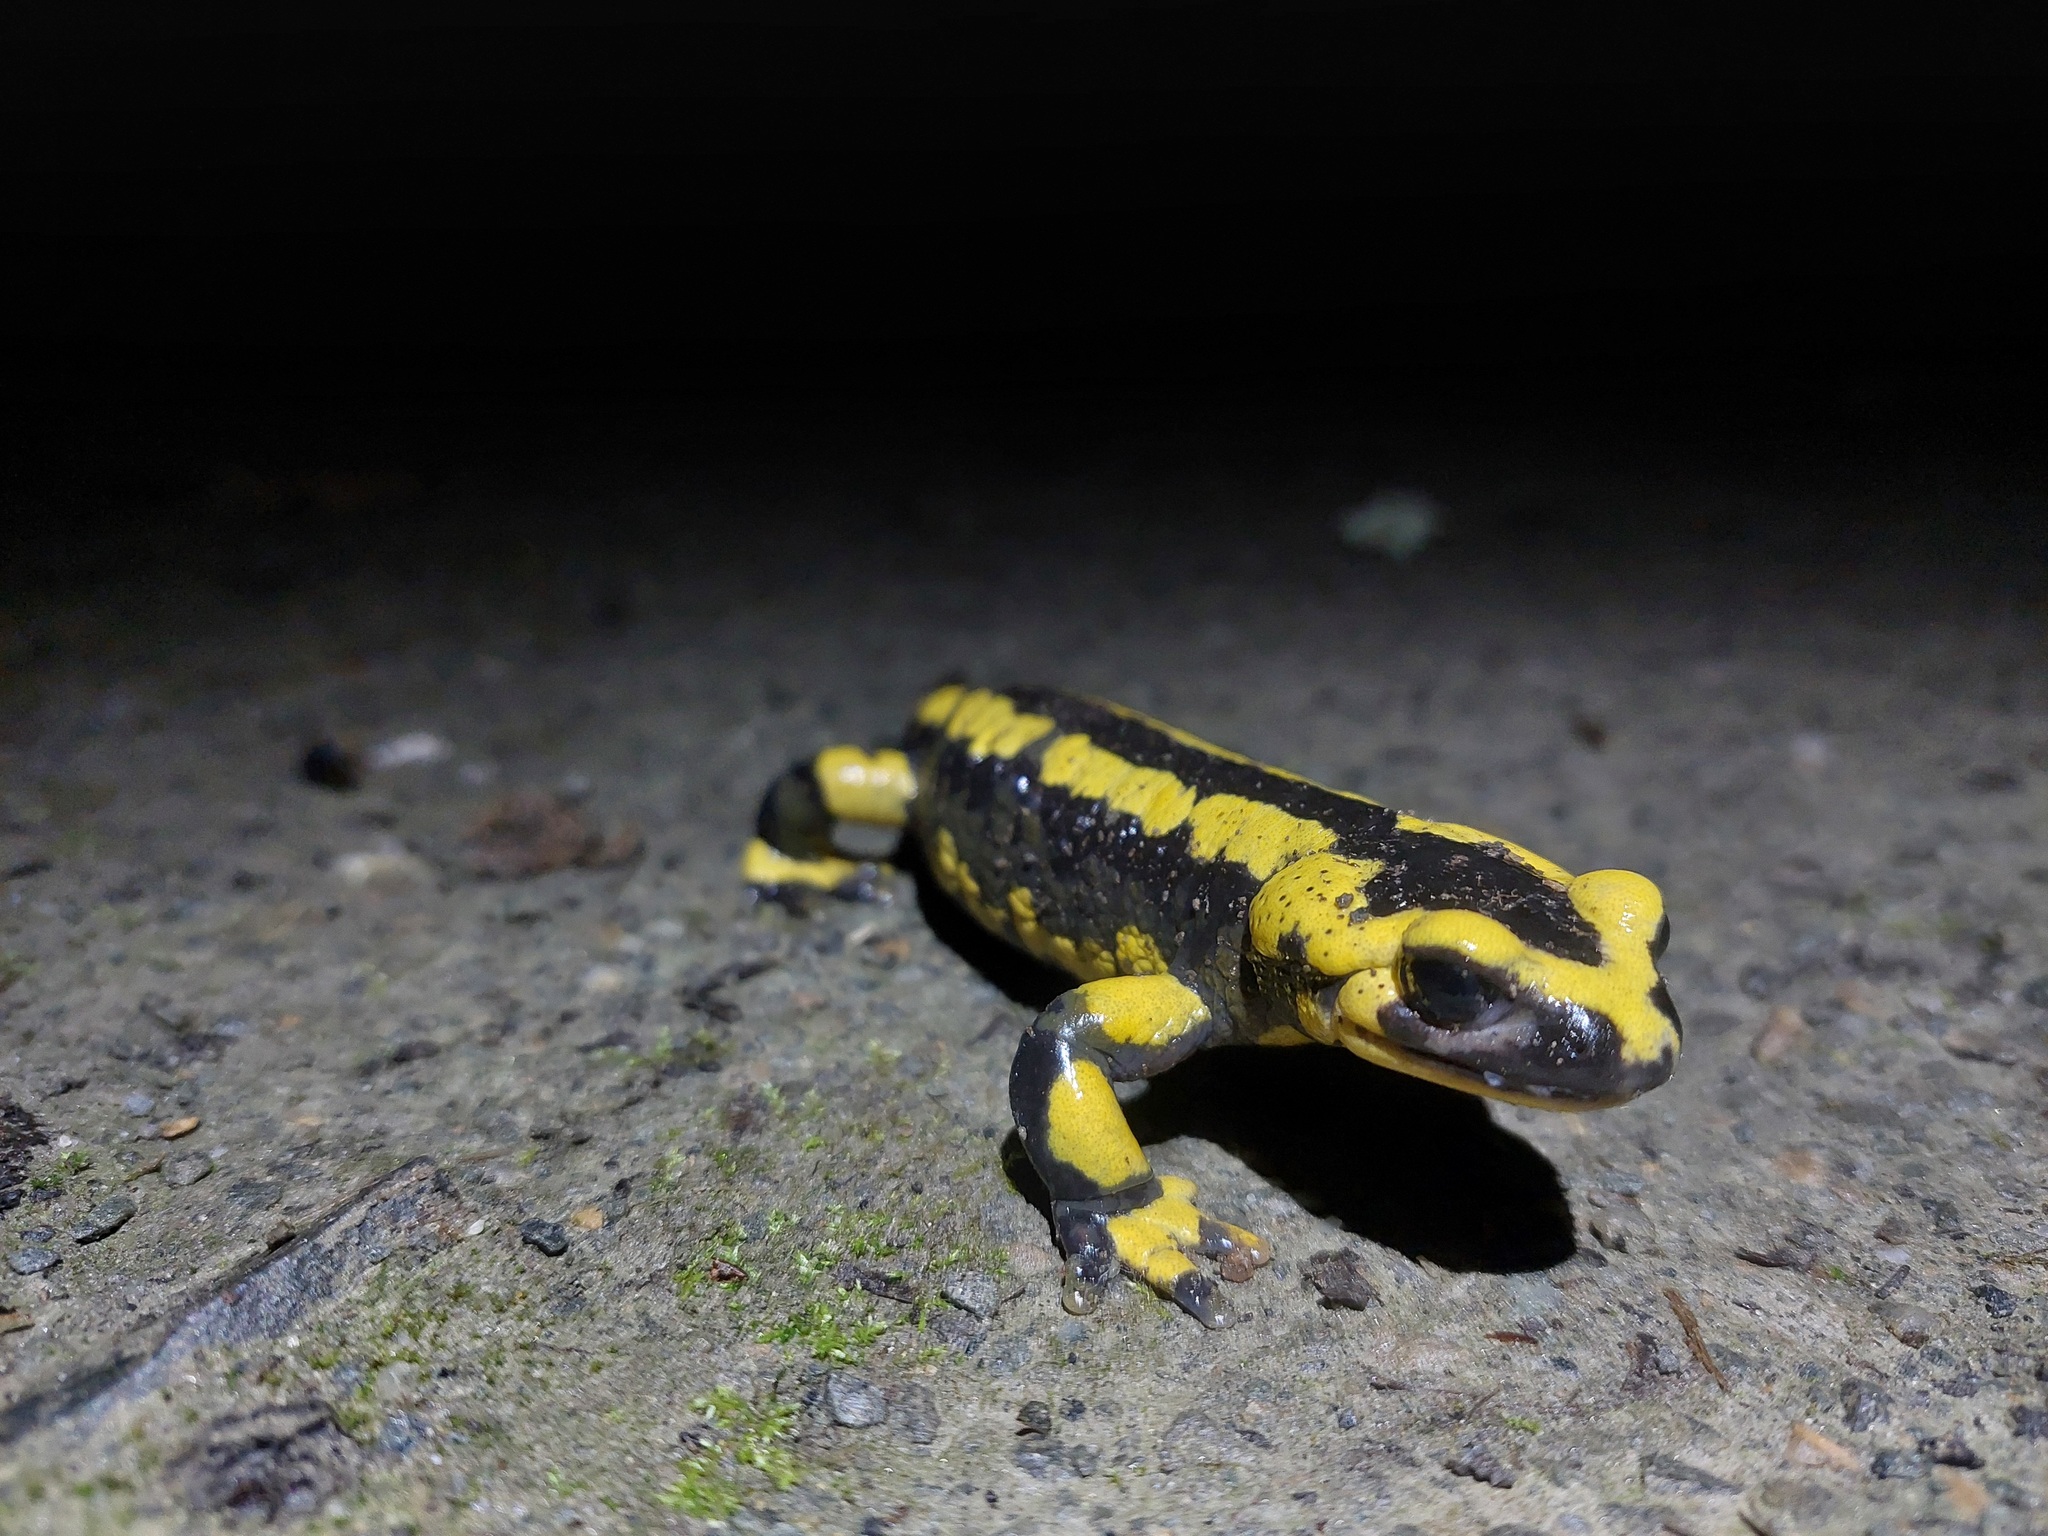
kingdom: Animalia
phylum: Chordata
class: Amphibia
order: Caudata
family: Salamandridae
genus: Salamandra
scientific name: Salamandra salamandra
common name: Fire salamander
